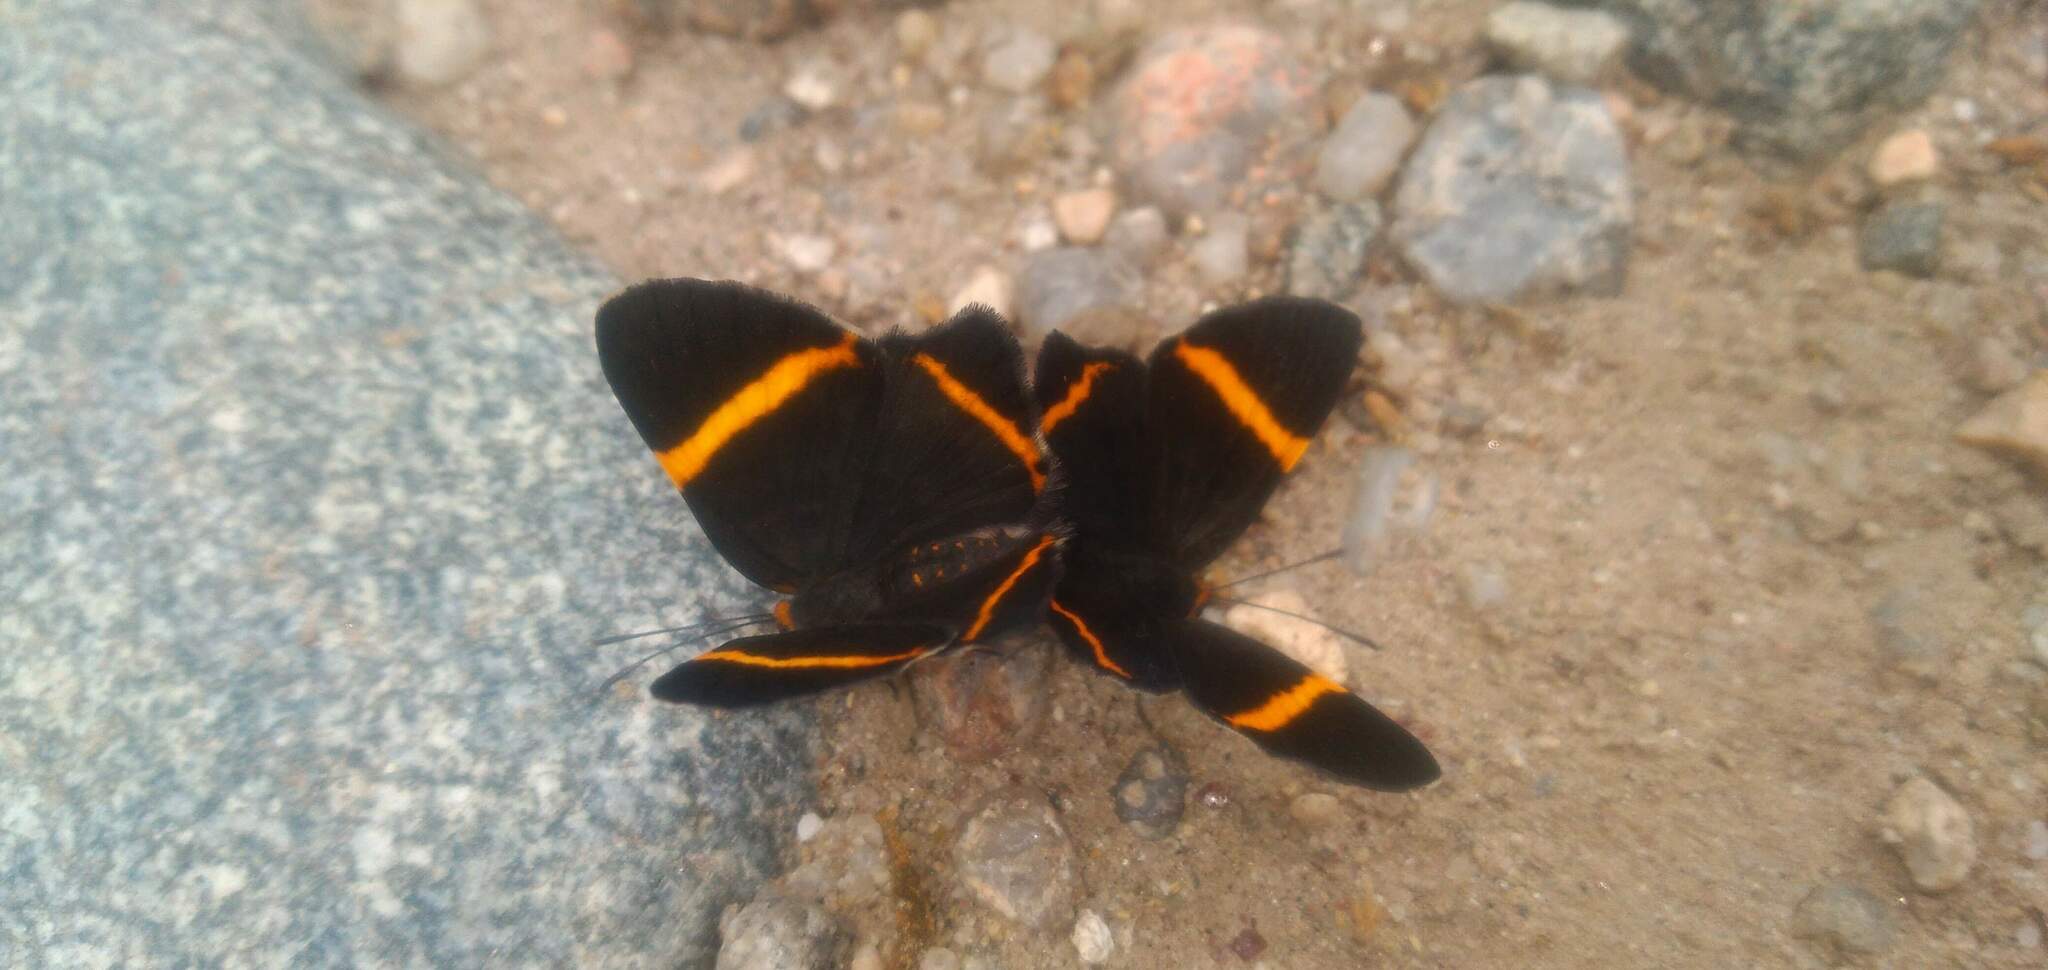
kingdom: Animalia
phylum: Arthropoda
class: Insecta
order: Lepidoptera
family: Riodinidae
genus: Riodina
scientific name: Riodina lysippoides
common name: Little dancer metalmark
